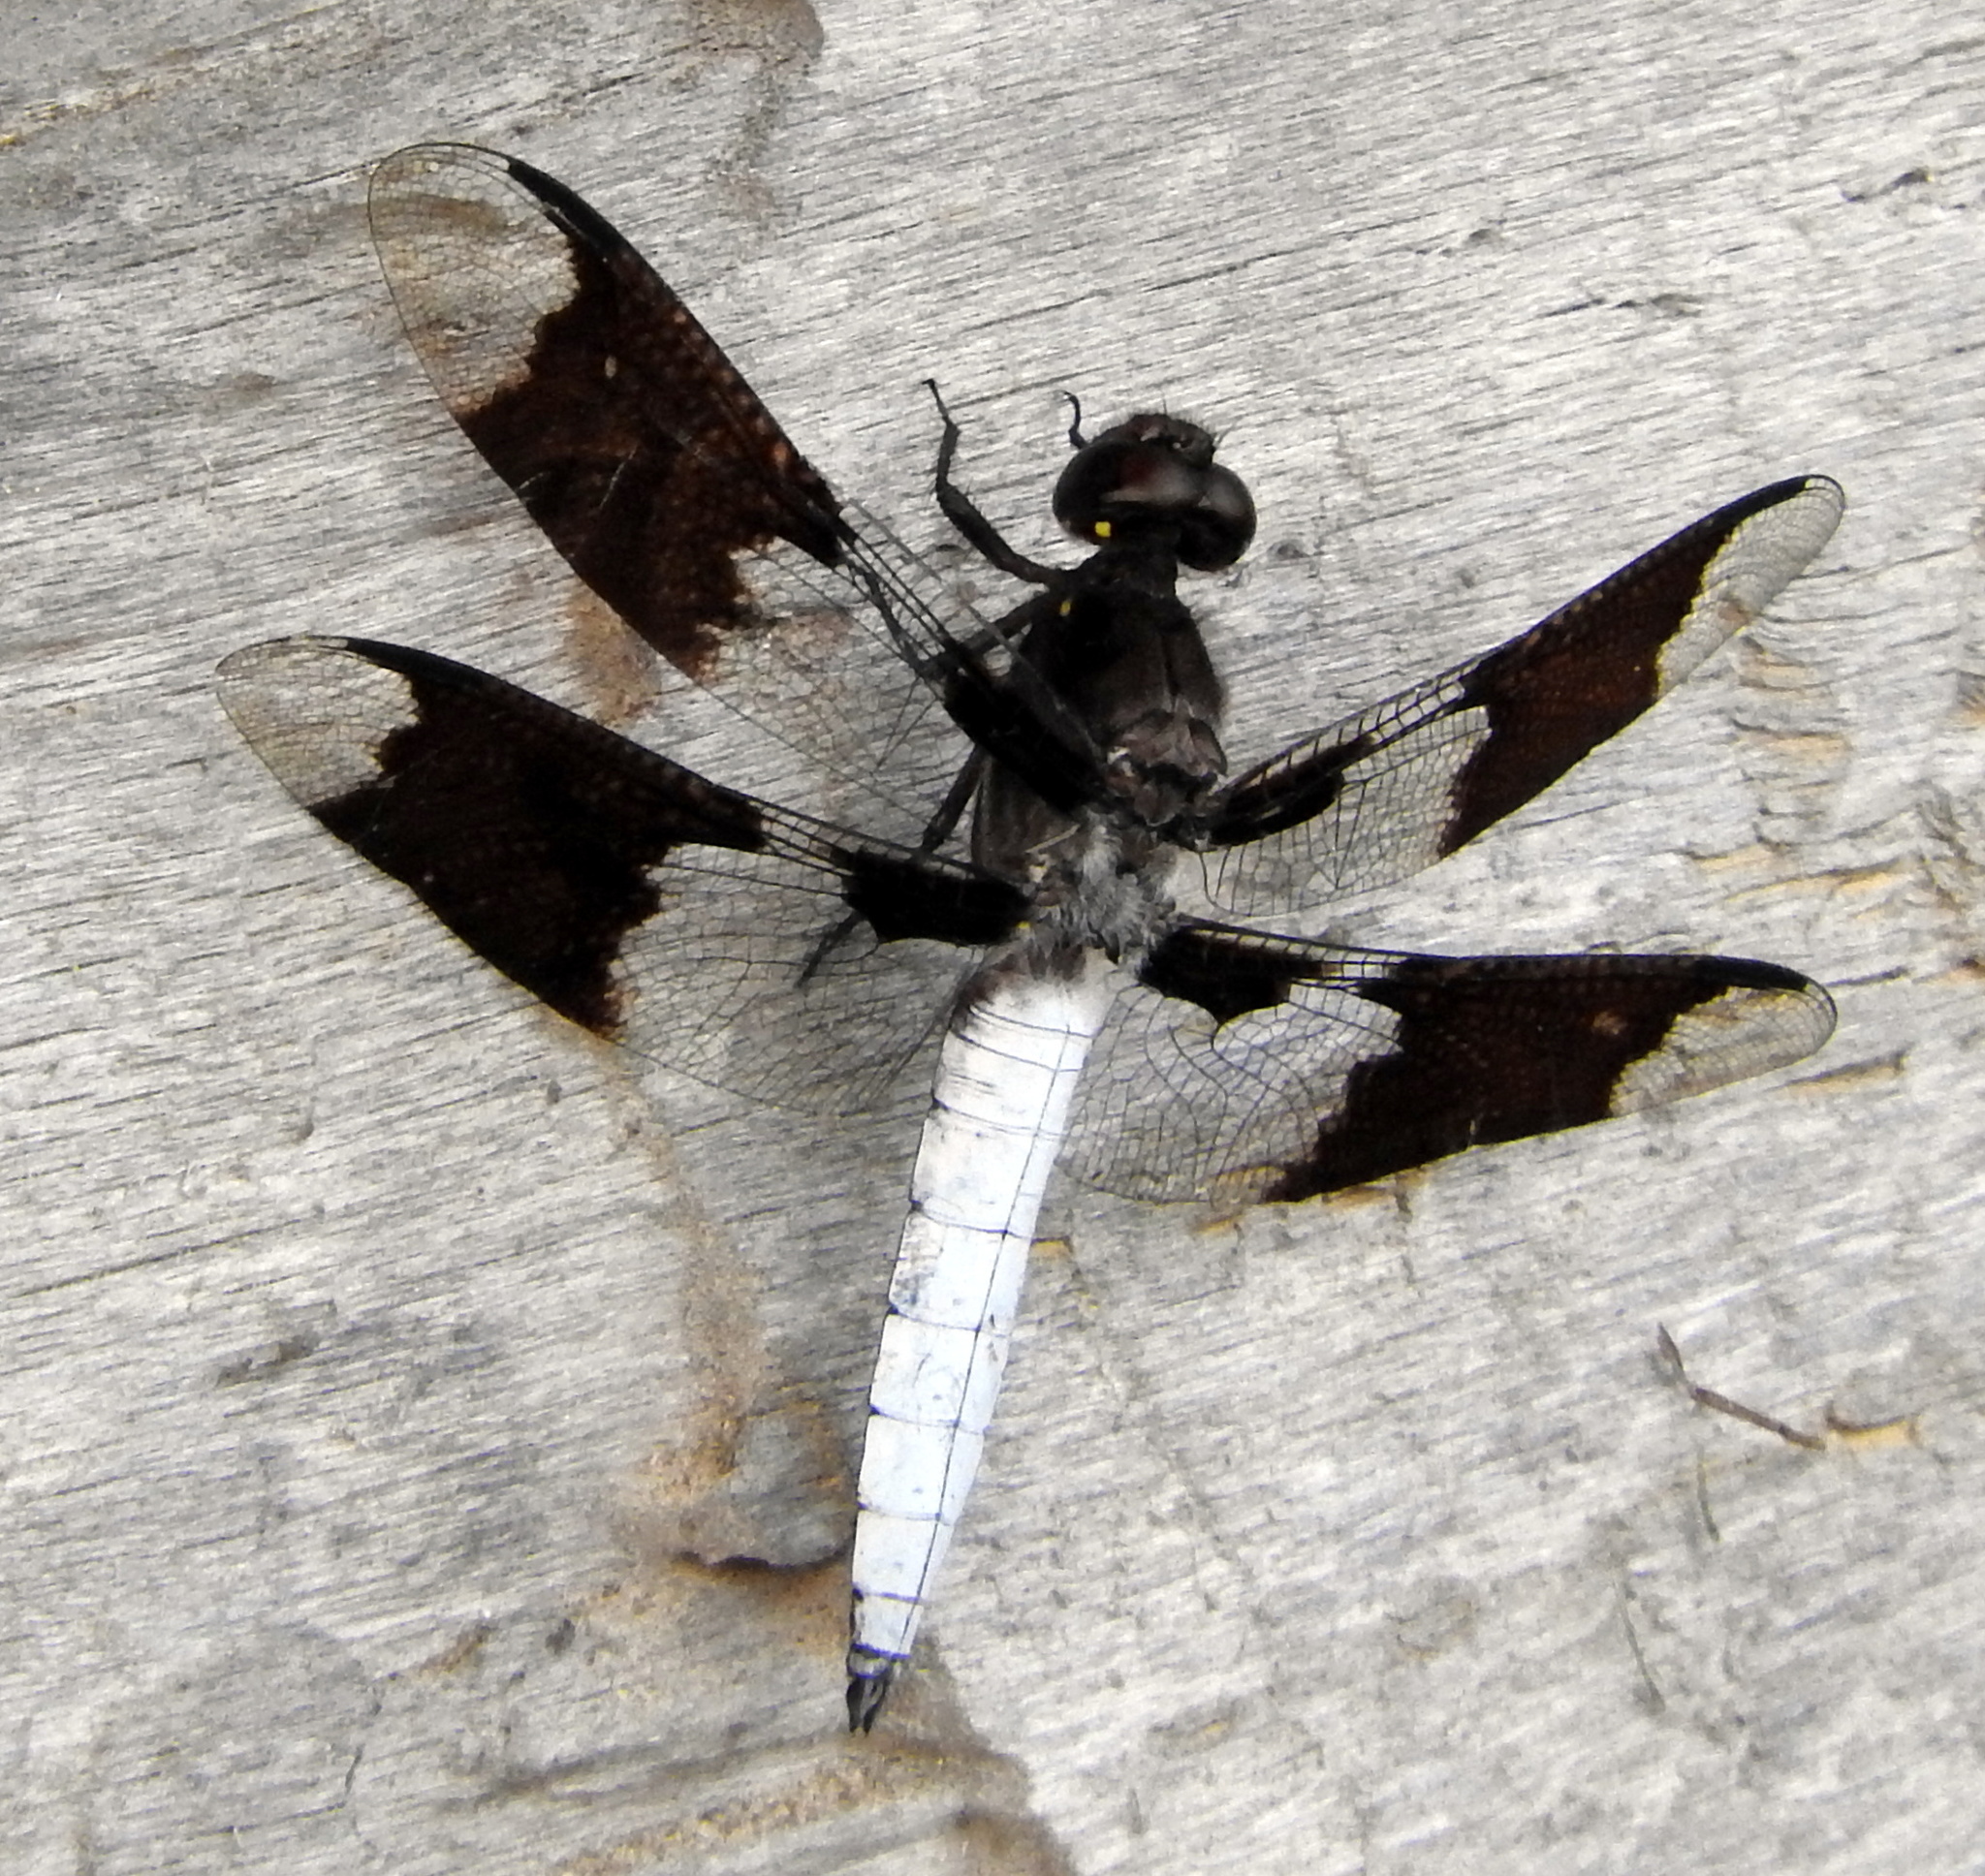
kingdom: Animalia
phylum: Arthropoda
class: Insecta
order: Odonata
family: Libellulidae
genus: Plathemis
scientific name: Plathemis lydia
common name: Common whitetail
